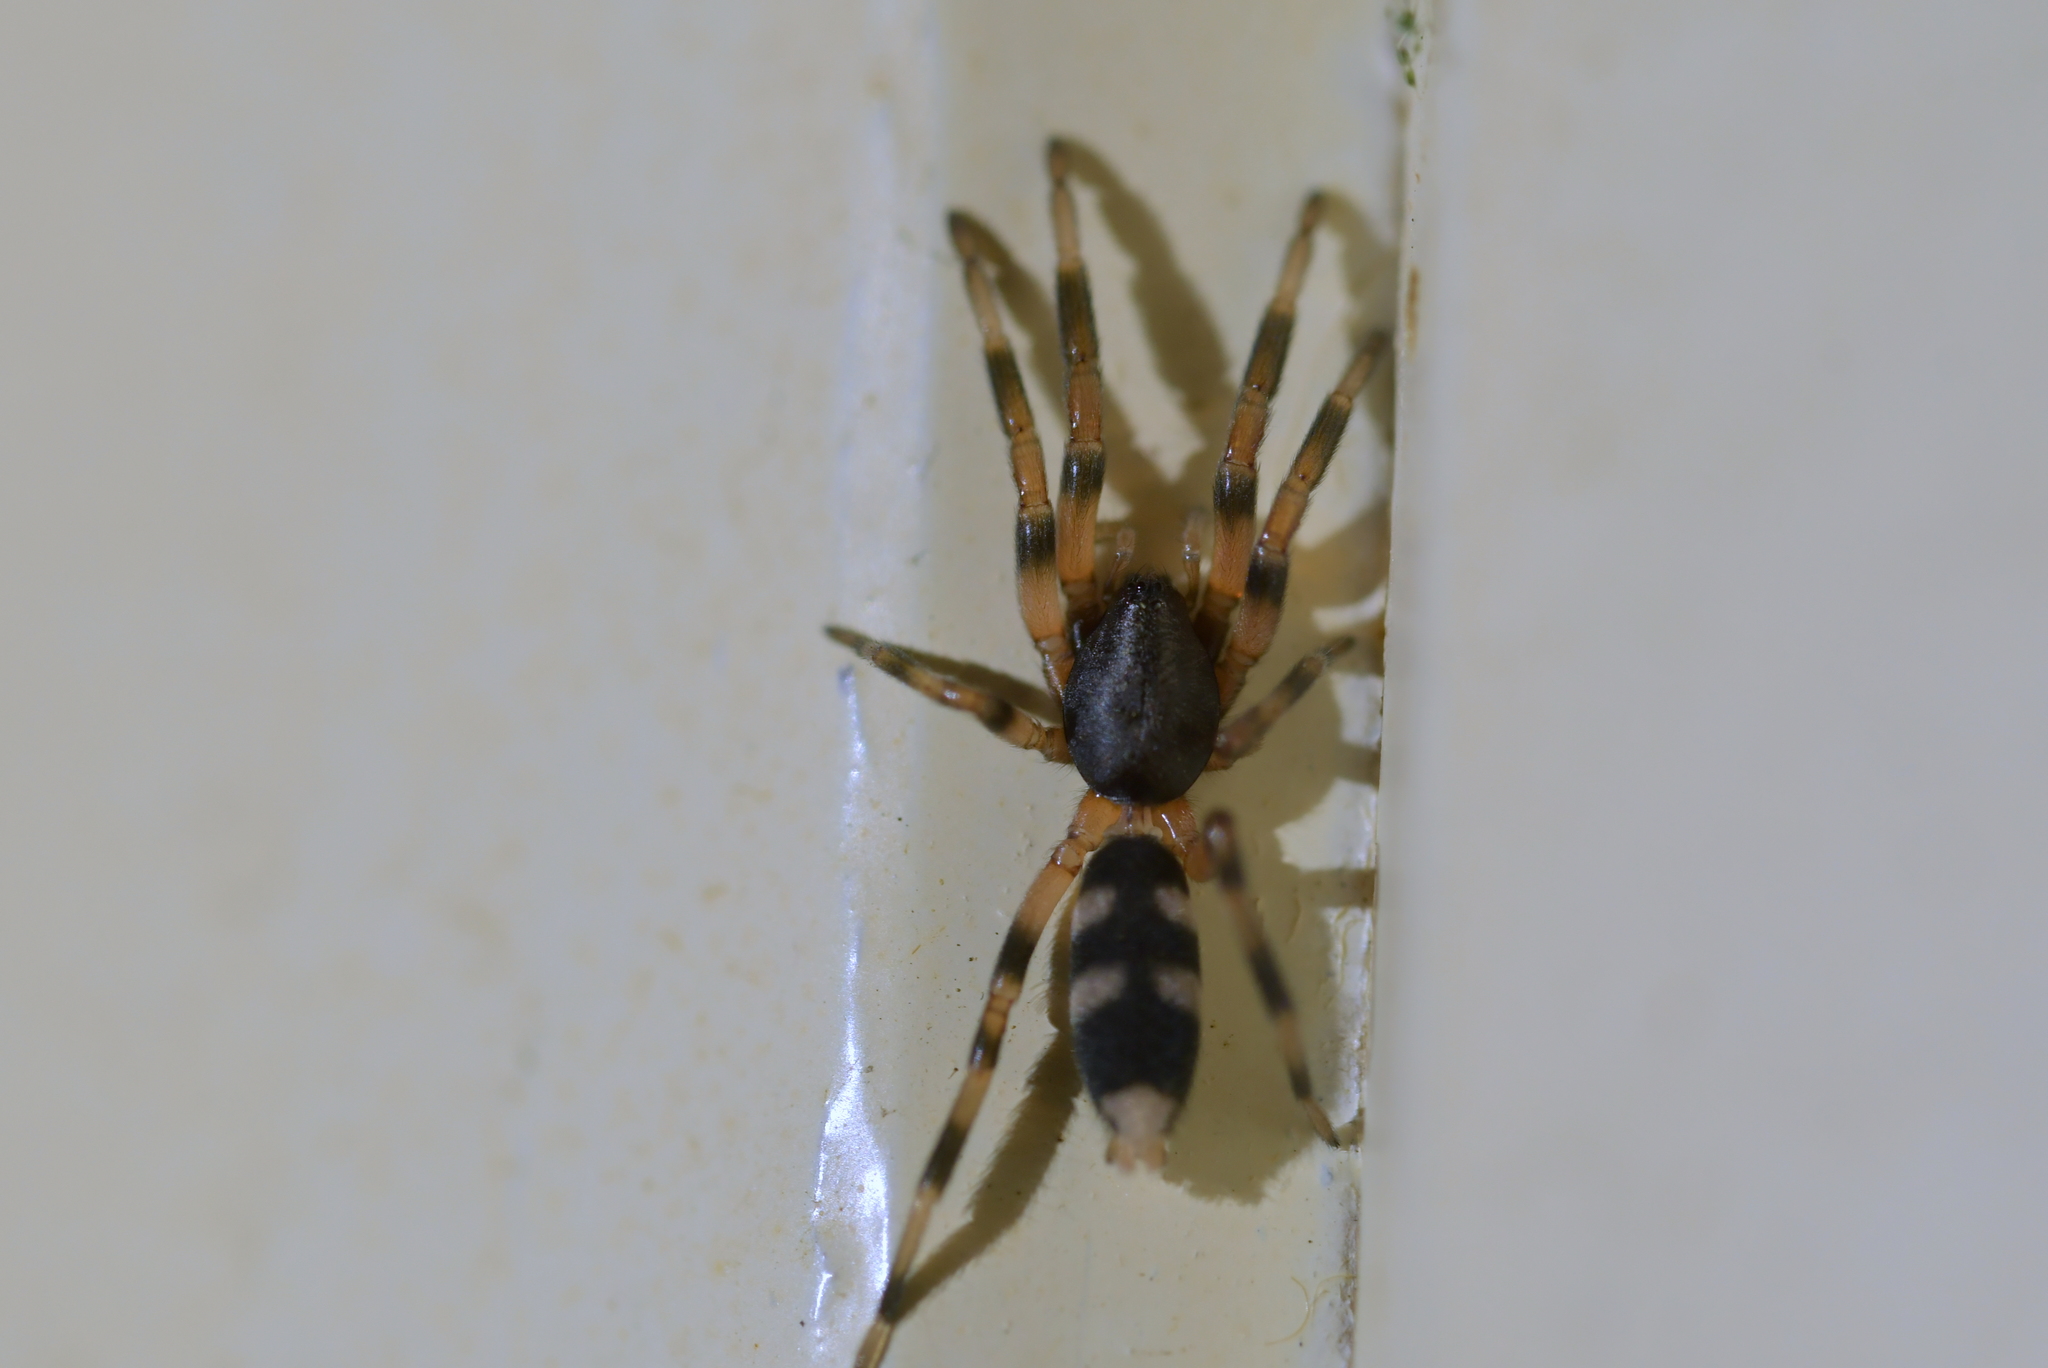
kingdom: Animalia
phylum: Arthropoda
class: Arachnida
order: Araneae
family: Lamponidae
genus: Lampona
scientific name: Lampona murina
